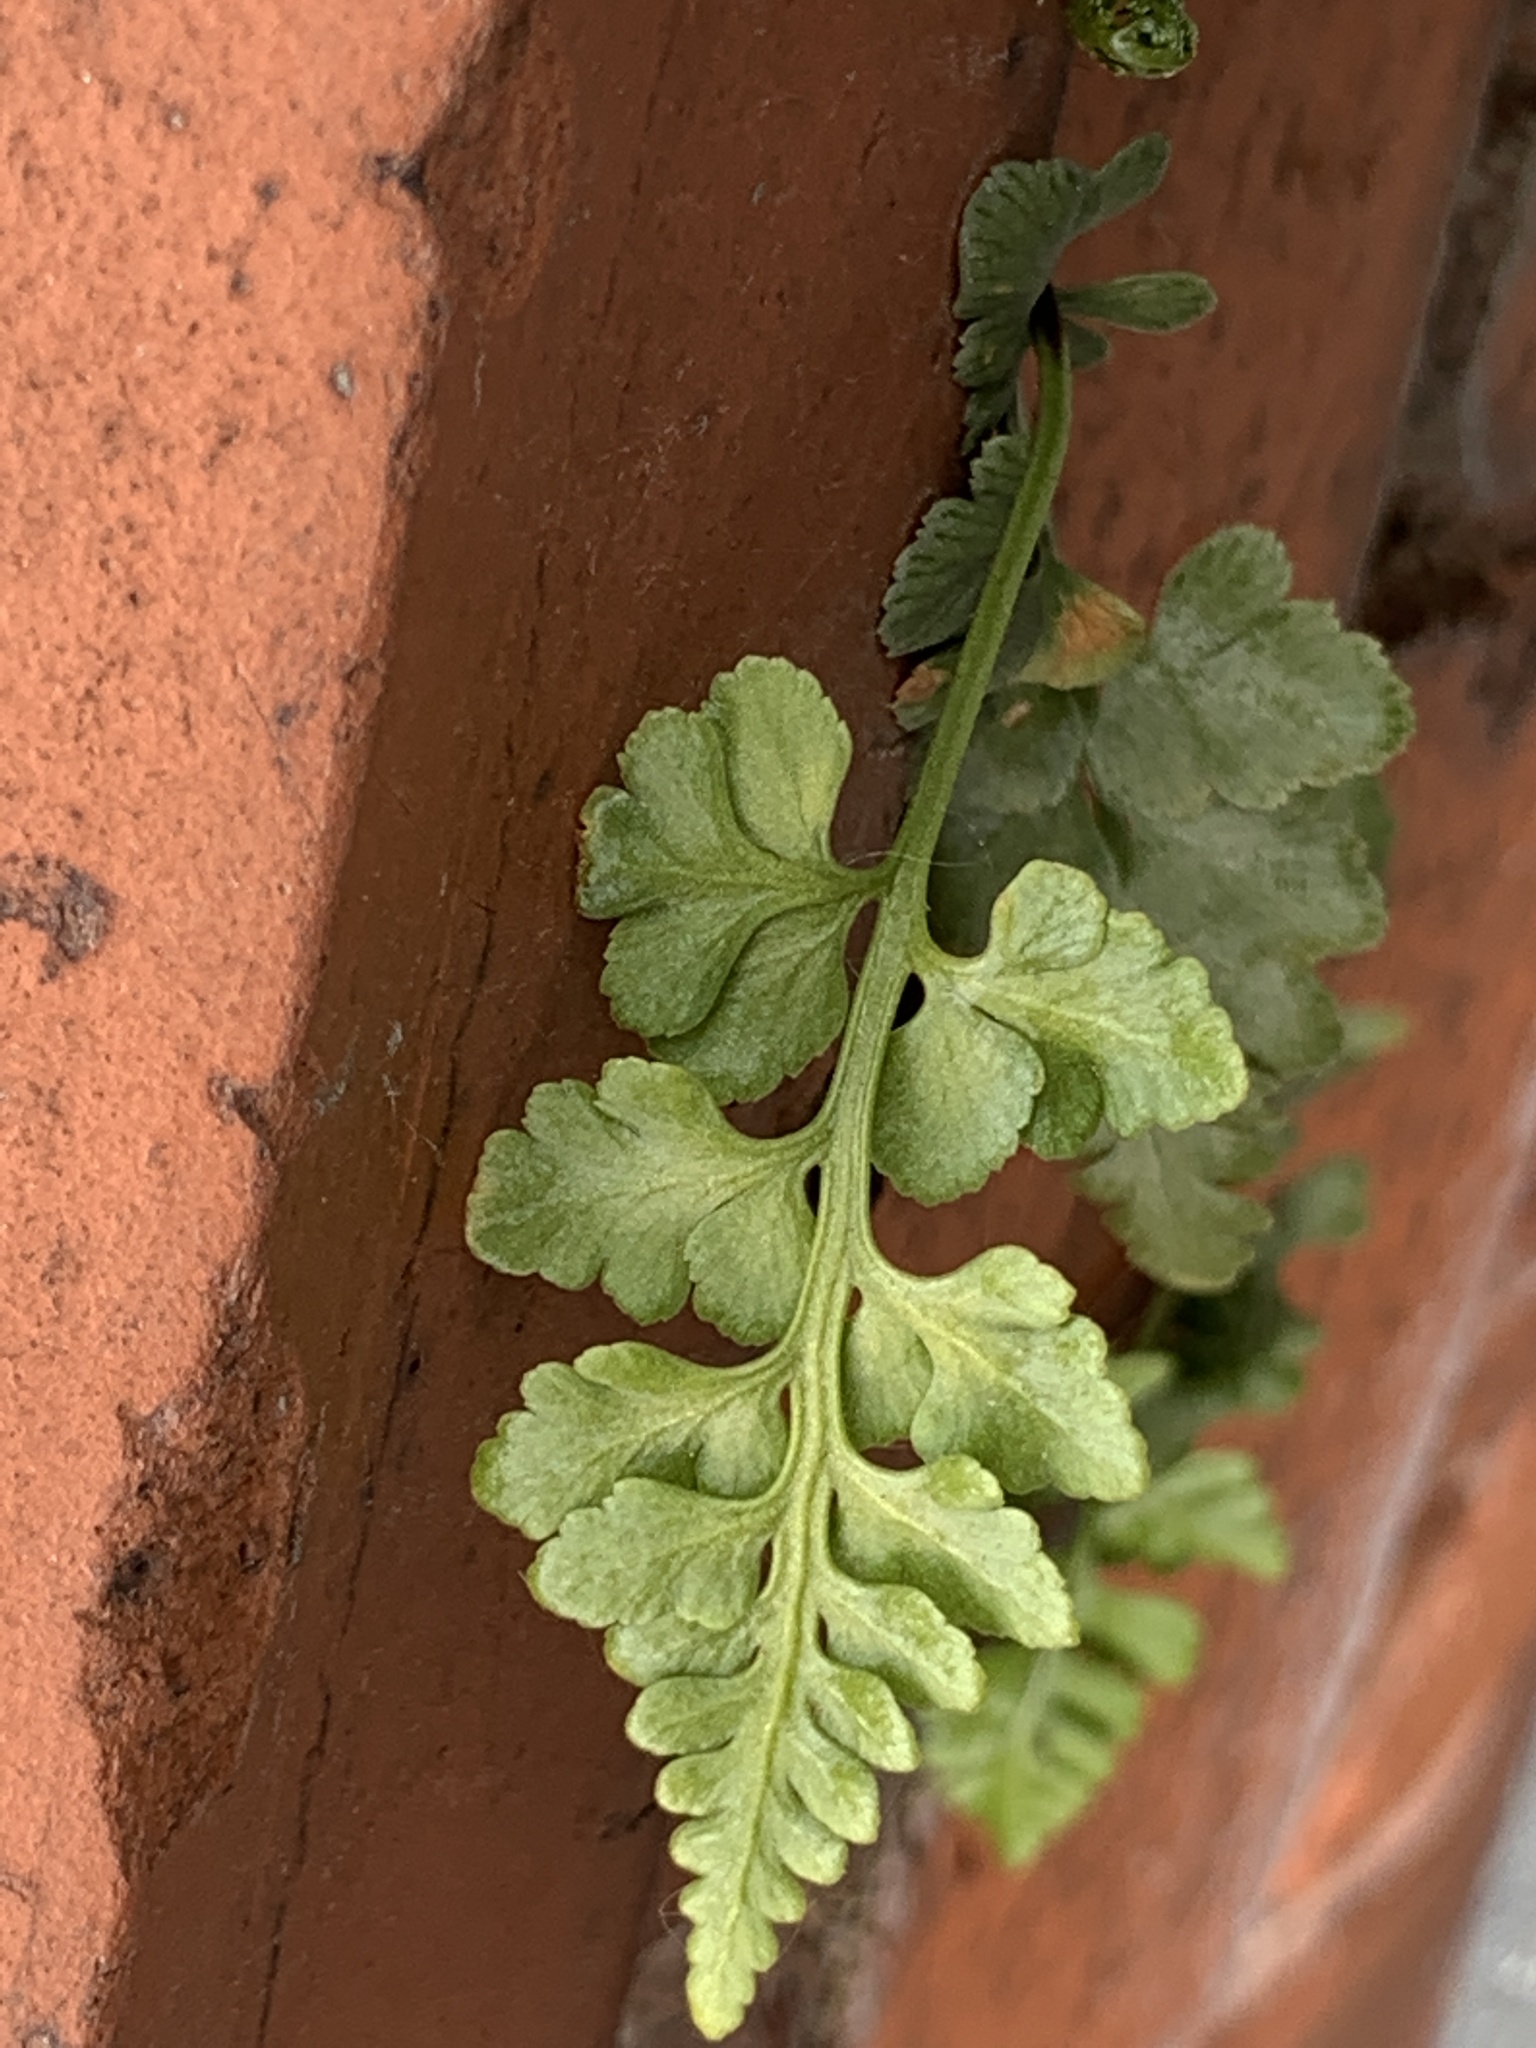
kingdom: Plantae
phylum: Tracheophyta
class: Polypodiopsida
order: Polypodiales
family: Aspleniaceae
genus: Asplenium
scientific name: Asplenium adiantum-nigrum
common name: Black spleenwort
